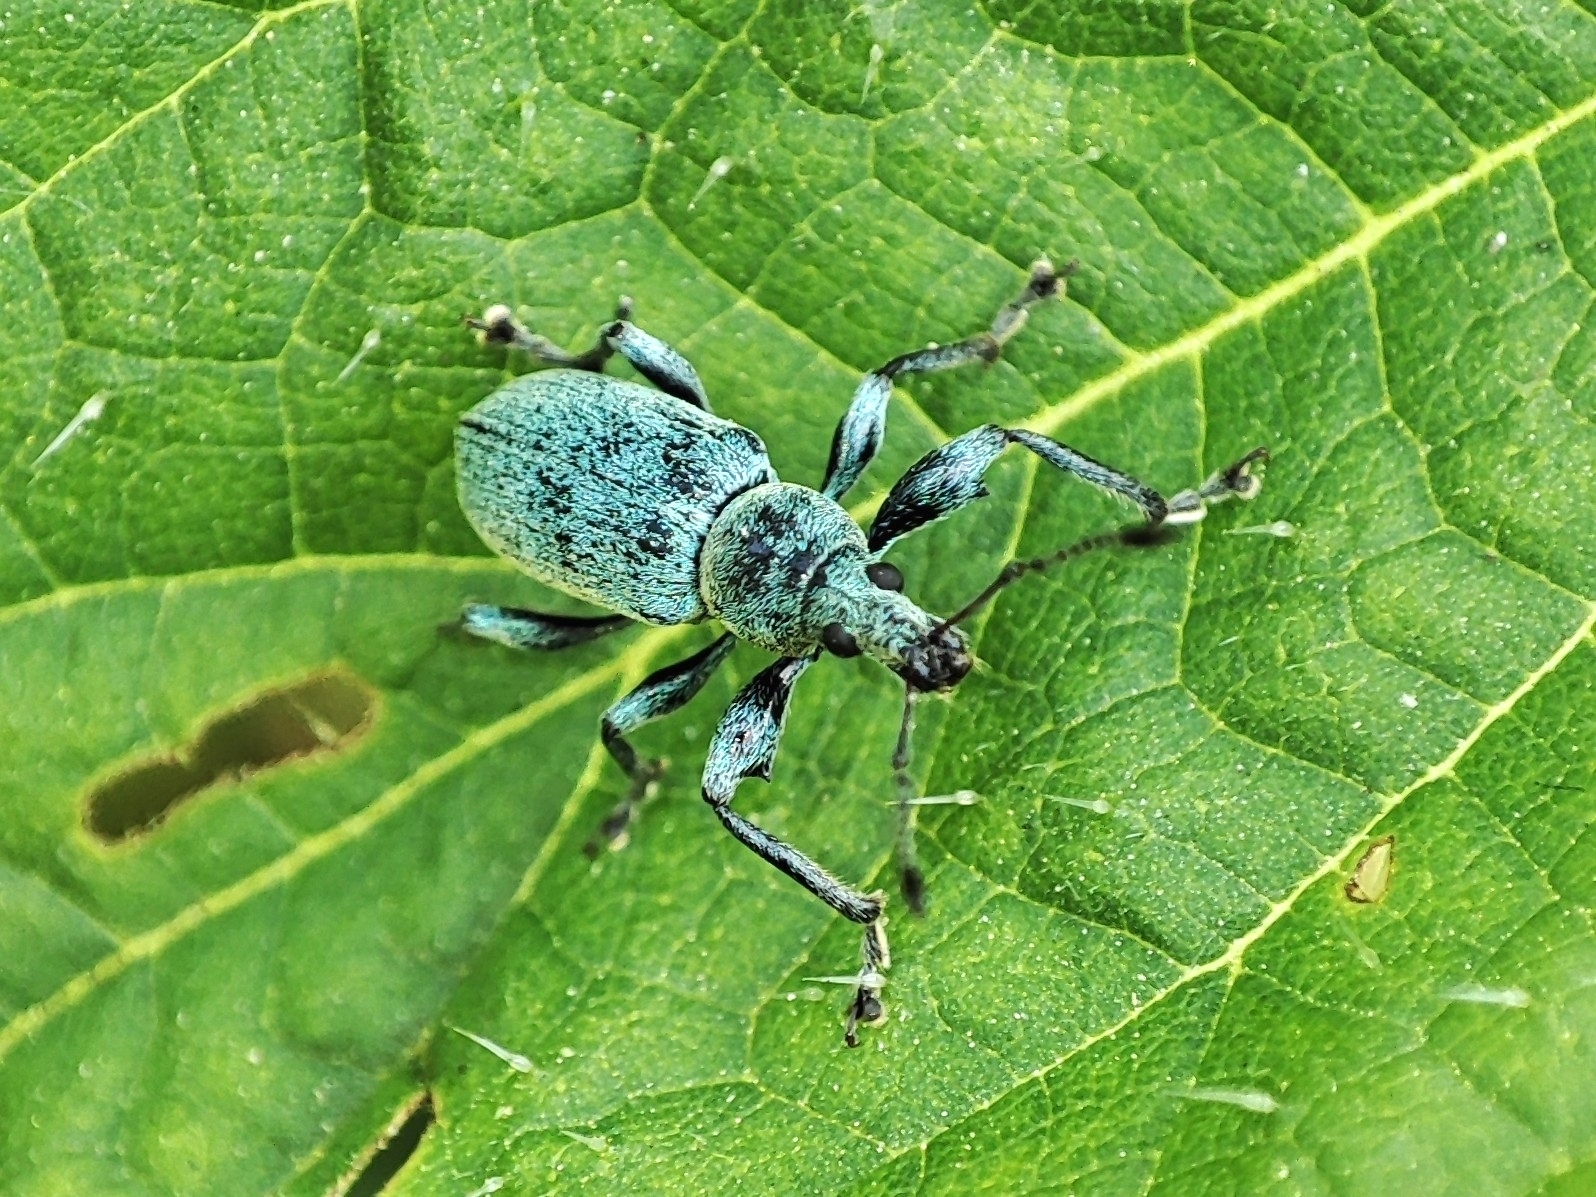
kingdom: Animalia
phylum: Arthropoda
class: Insecta
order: Coleoptera
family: Curculionidae
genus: Phyllobius
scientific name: Phyllobius pomaceus
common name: Green nettle weevil
